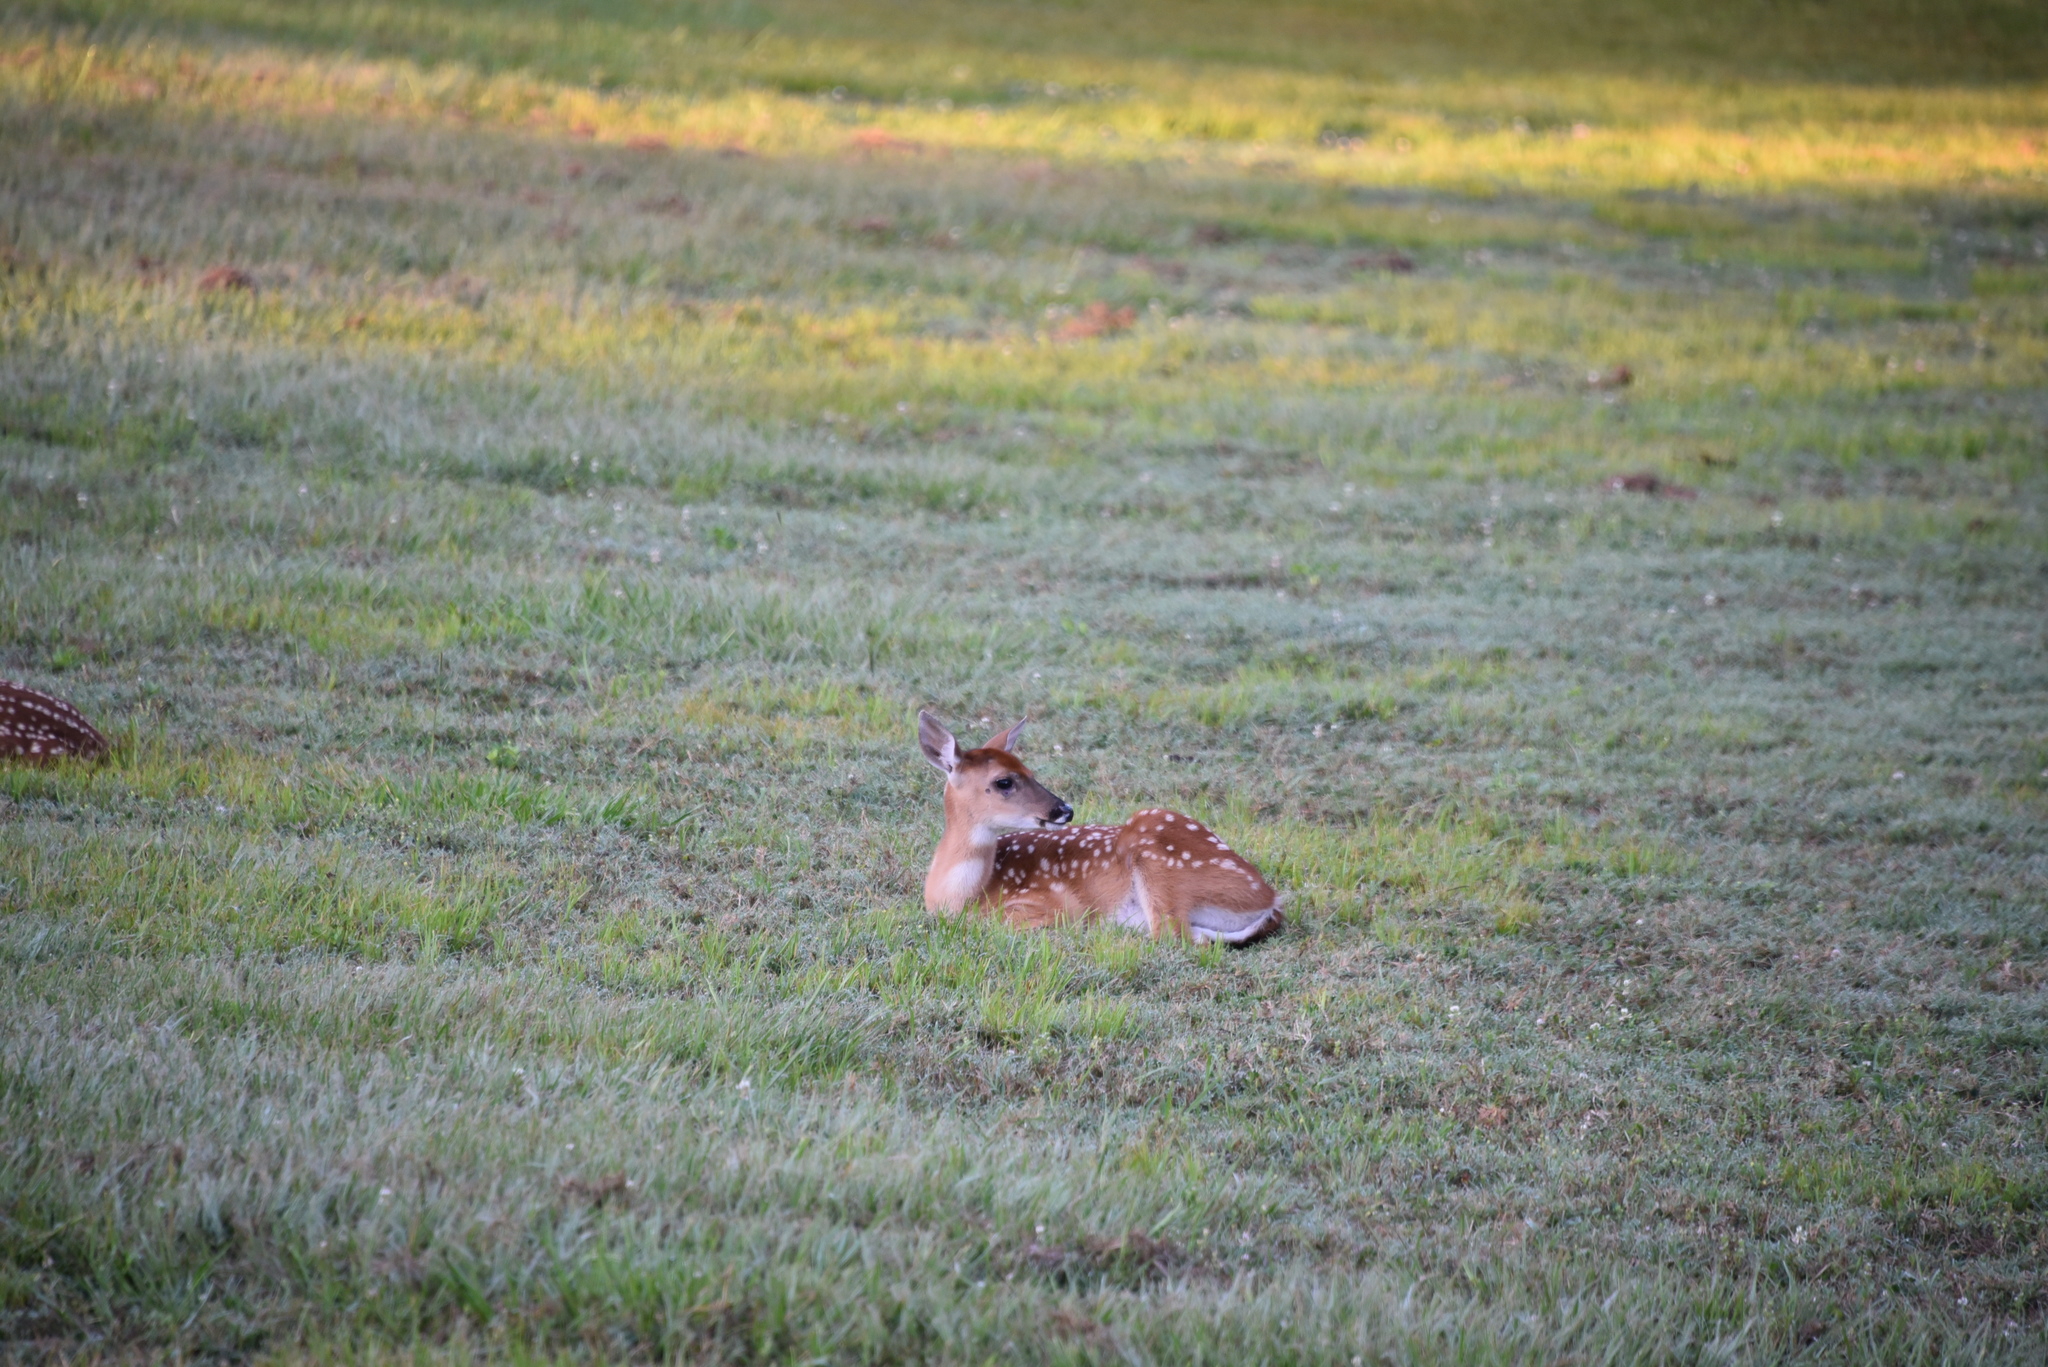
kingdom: Animalia
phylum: Chordata
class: Mammalia
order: Artiodactyla
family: Cervidae
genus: Odocoileus
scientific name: Odocoileus virginianus
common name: White-tailed deer
